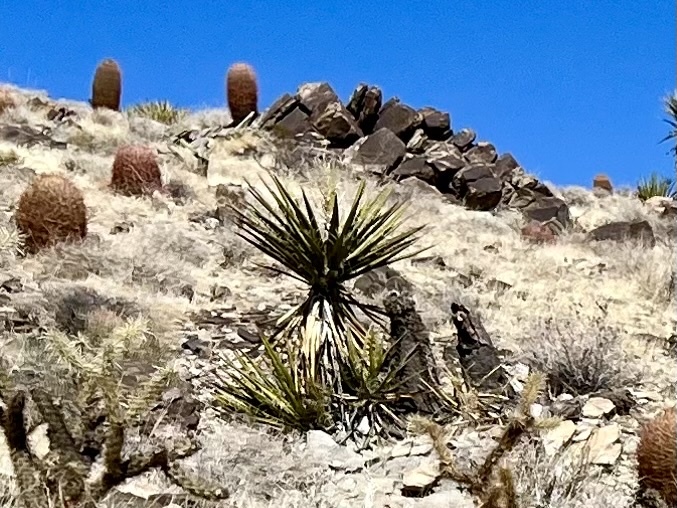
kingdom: Plantae
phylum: Tracheophyta
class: Liliopsida
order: Asparagales
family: Asparagaceae
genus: Yucca
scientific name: Yucca schidigera
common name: Mojave yucca
